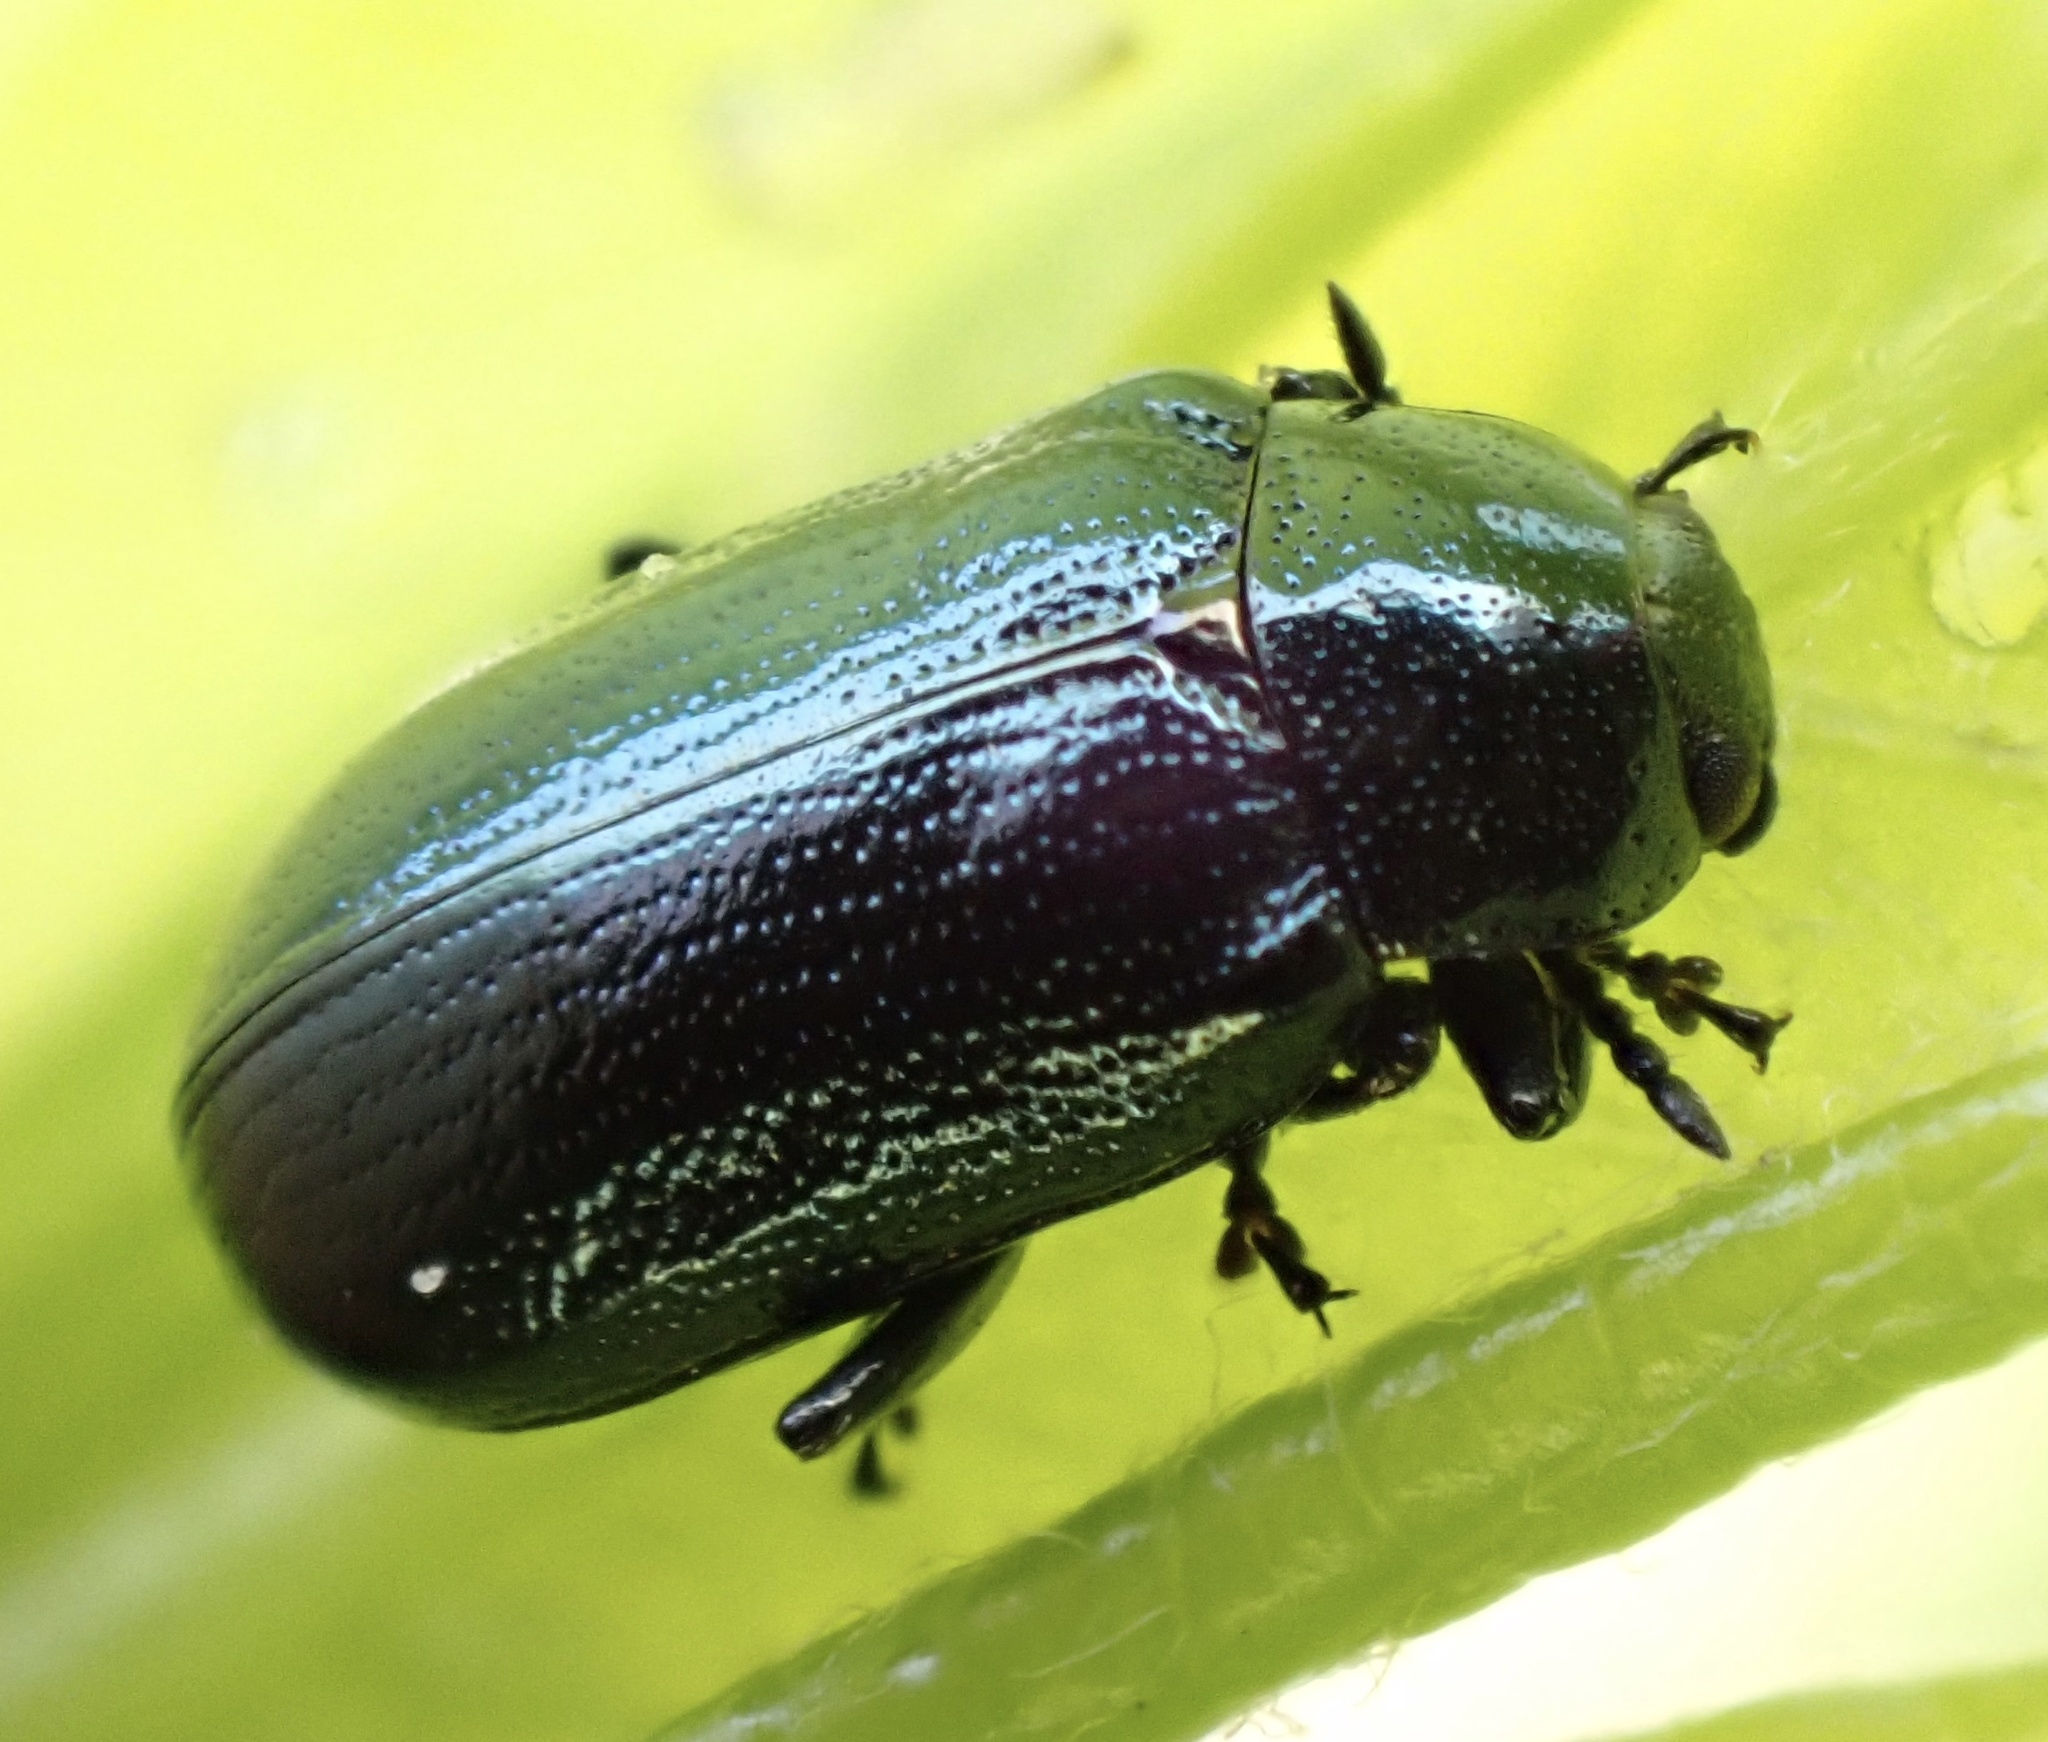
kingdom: Animalia
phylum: Arthropoda
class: Insecta
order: Coleoptera
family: Chrysomelidae
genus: Phratora
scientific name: Phratora vulgatissima
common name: Blue willow beetle
